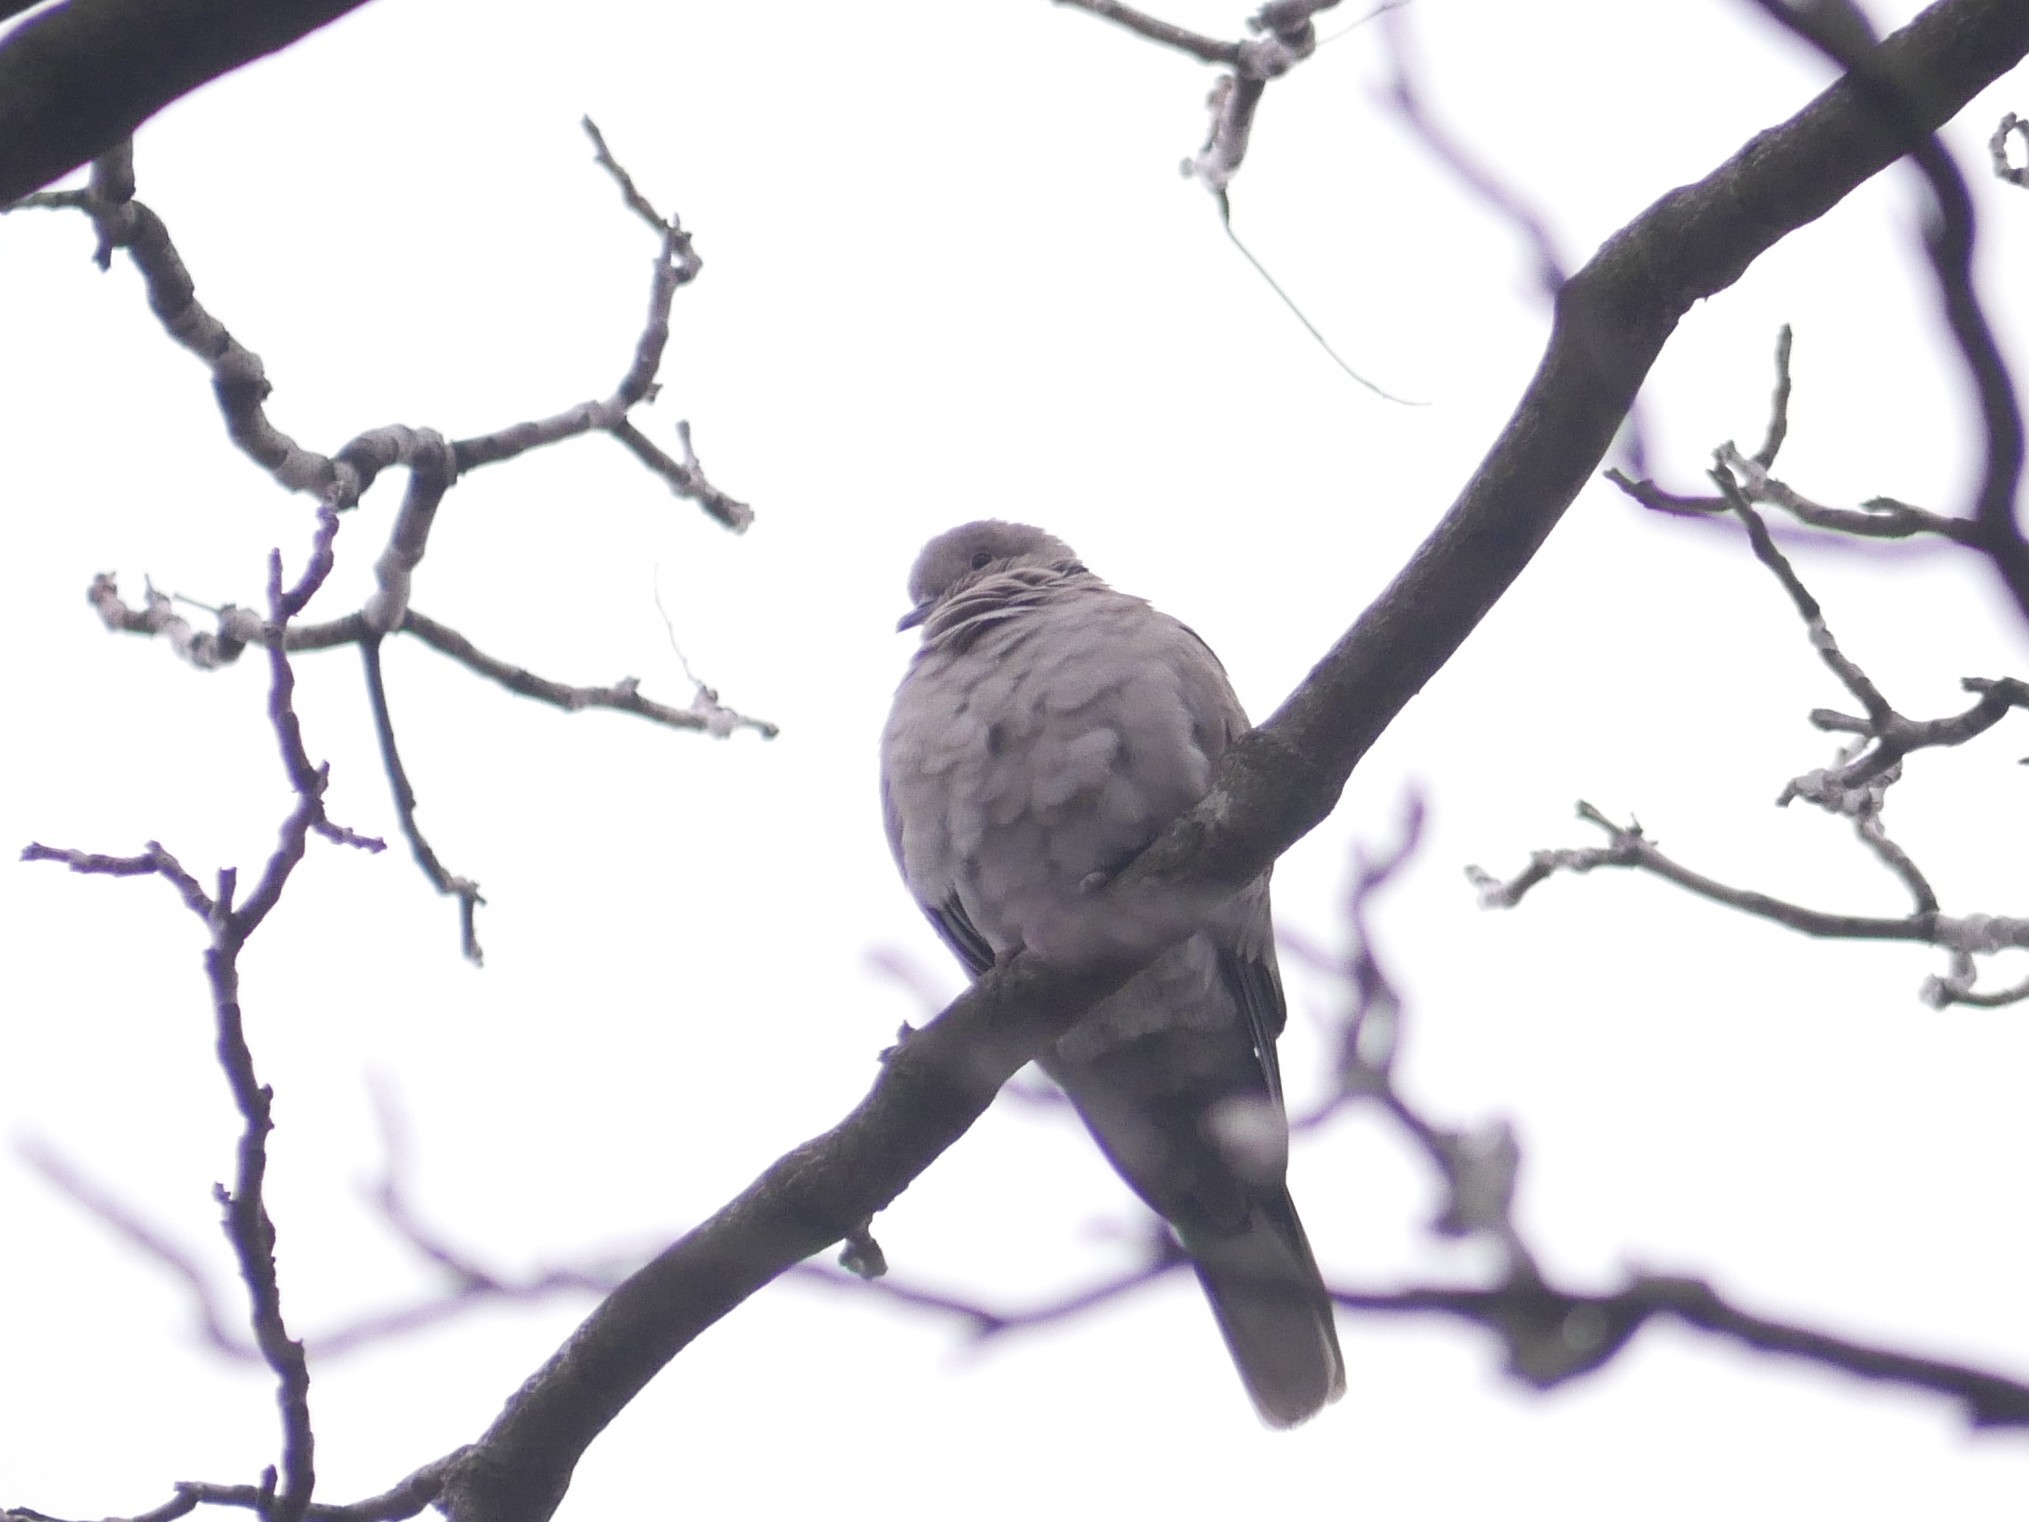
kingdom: Animalia
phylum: Chordata
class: Aves
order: Columbiformes
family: Columbidae
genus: Streptopelia
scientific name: Streptopelia decaocto
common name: Eurasian collared dove
